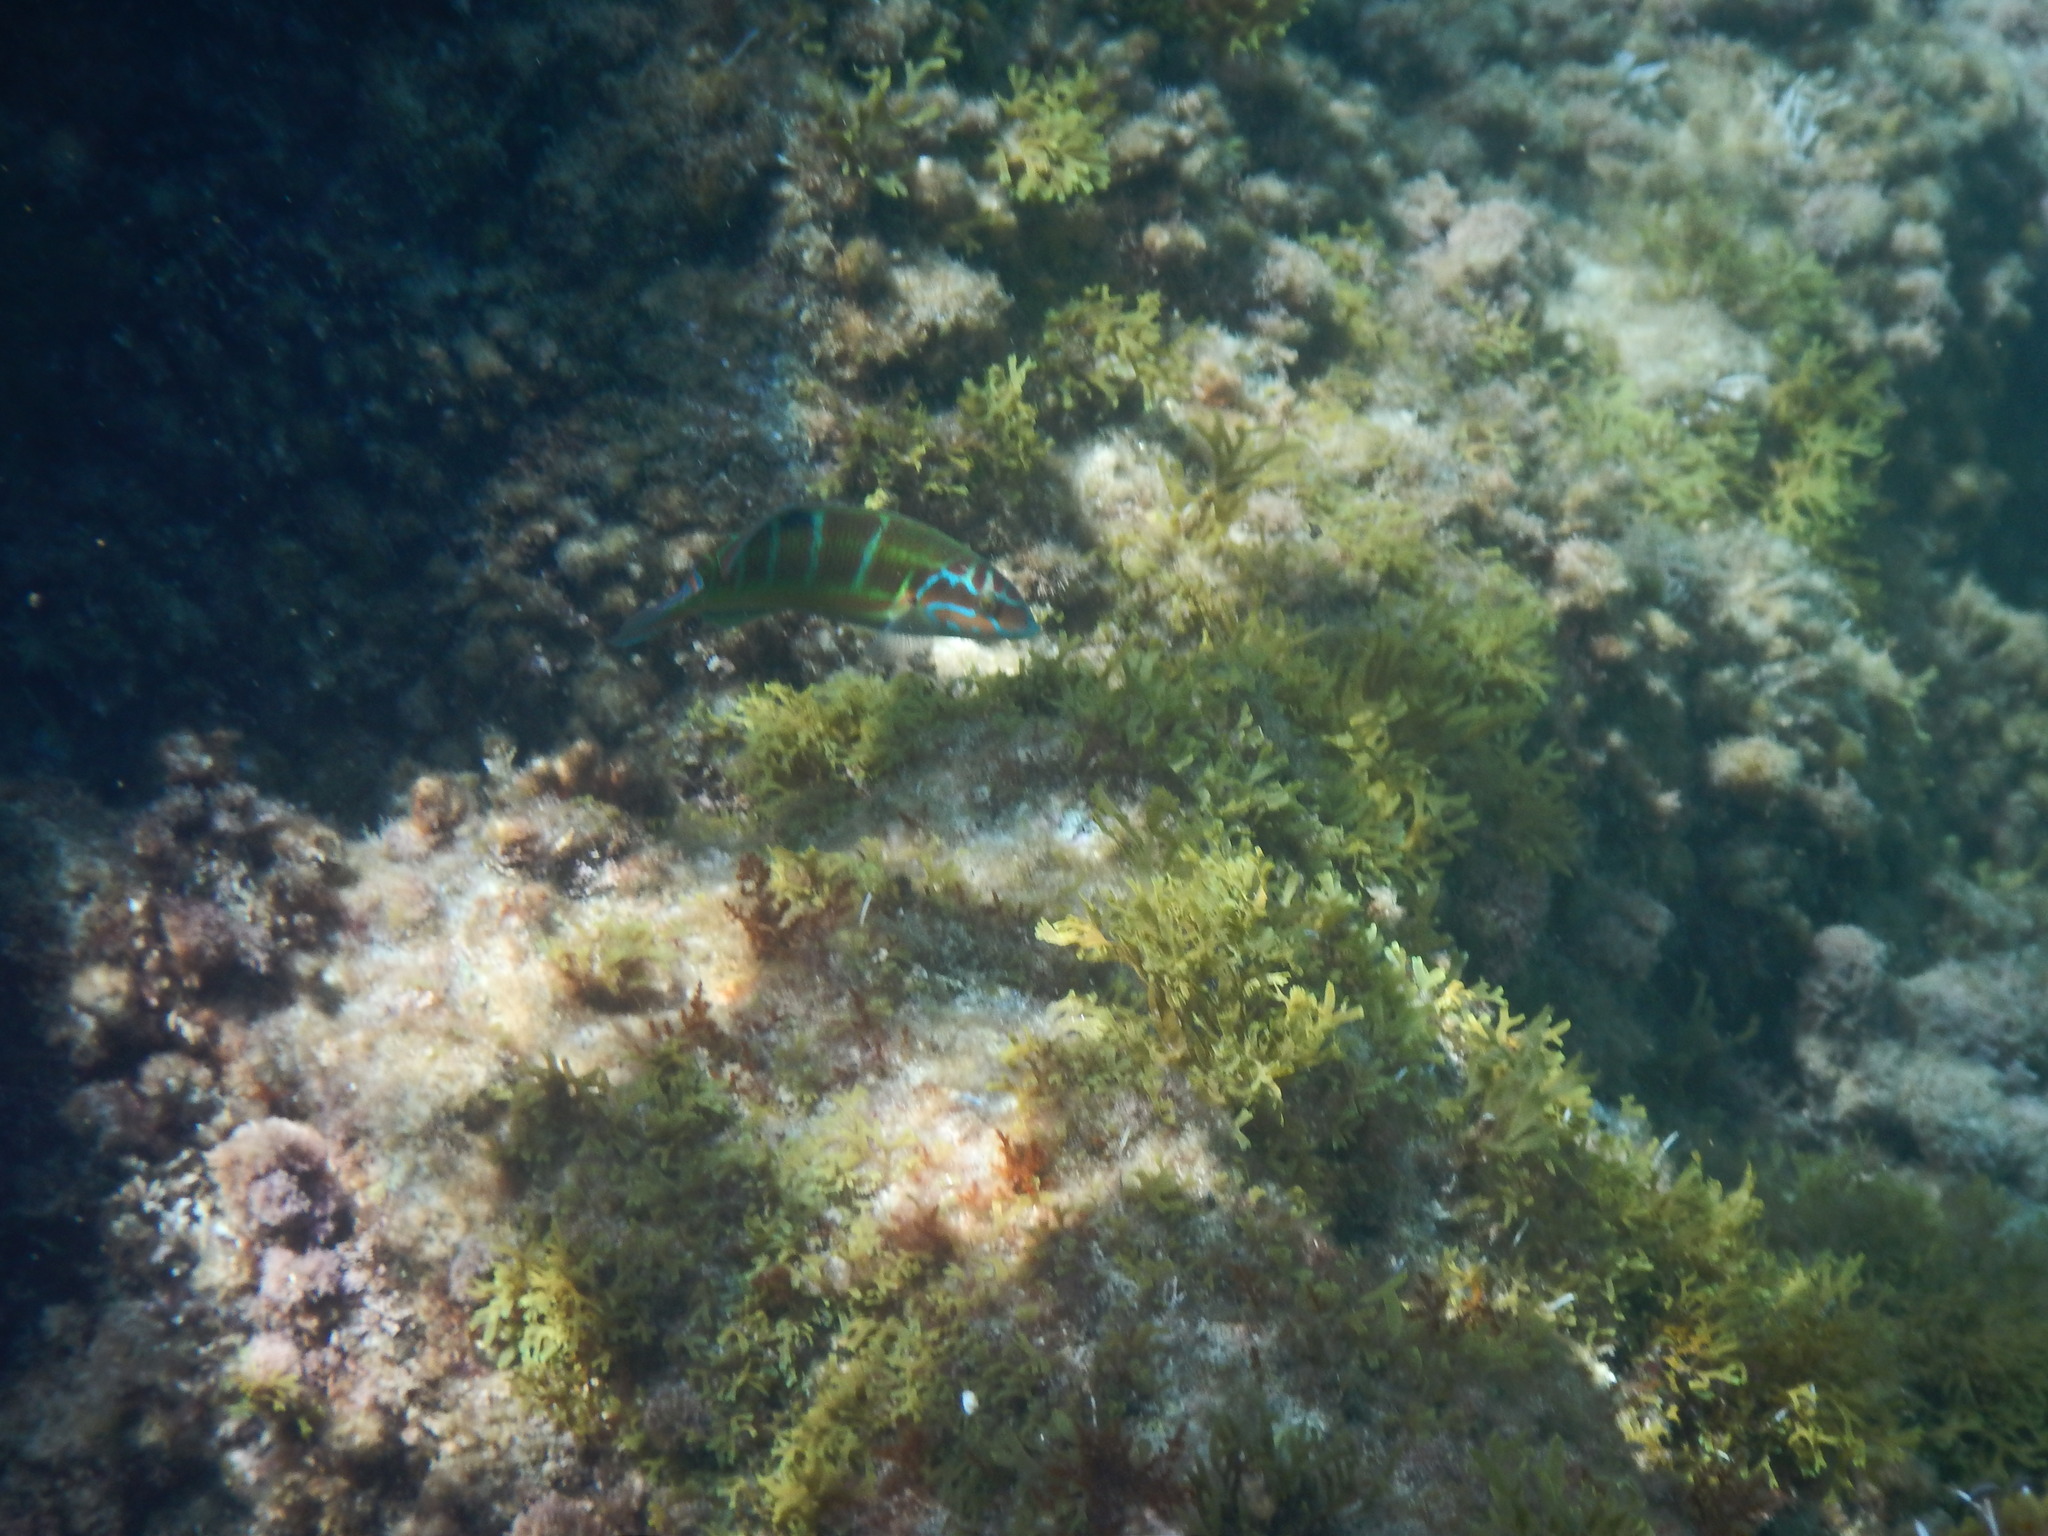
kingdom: Animalia
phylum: Chordata
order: Perciformes
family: Labridae
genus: Thalassoma
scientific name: Thalassoma pavo
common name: Ornate wrasse
